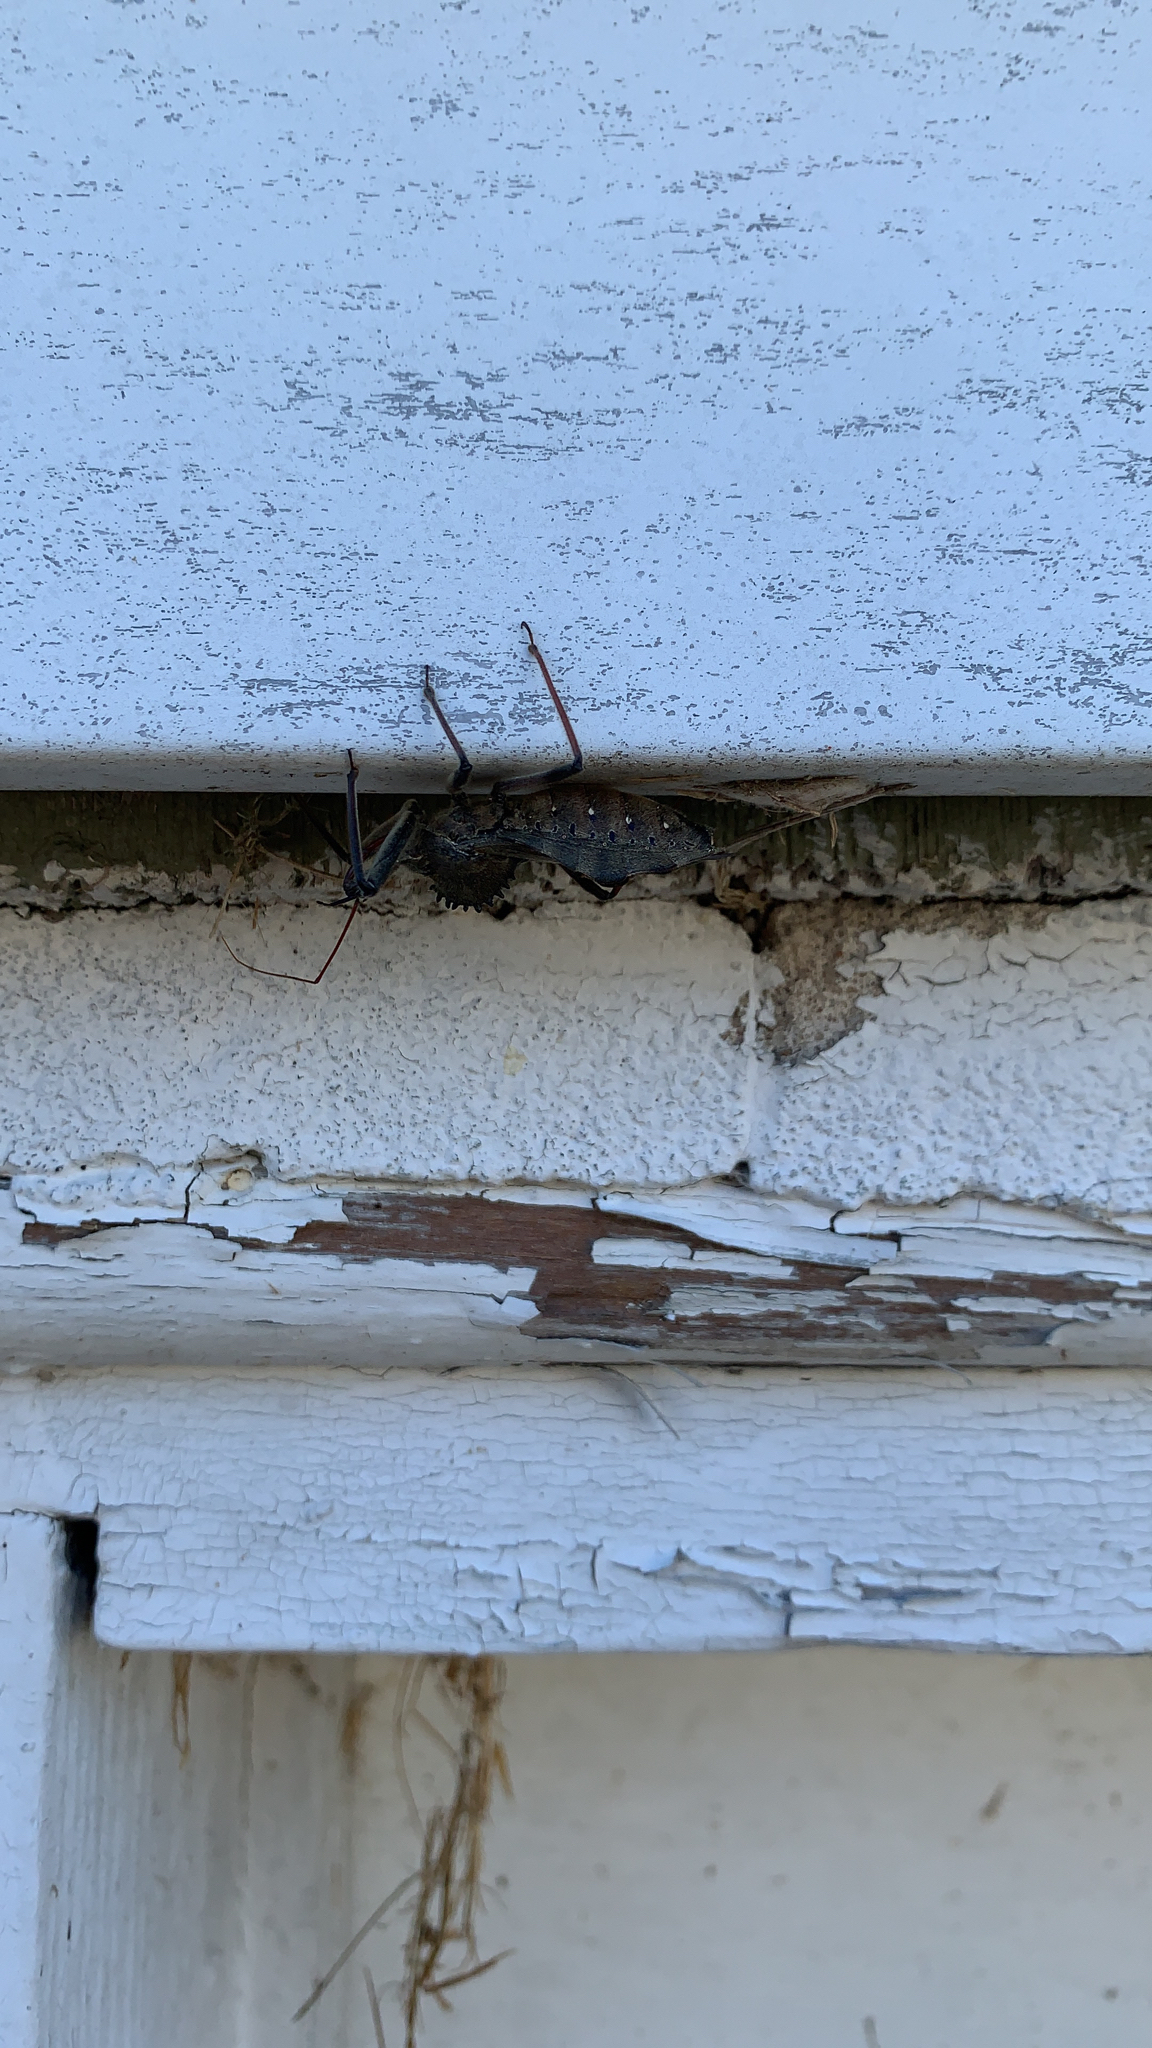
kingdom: Animalia
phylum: Arthropoda
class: Insecta
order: Hemiptera
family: Reduviidae
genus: Arilus
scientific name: Arilus cristatus
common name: North american wheel bug
